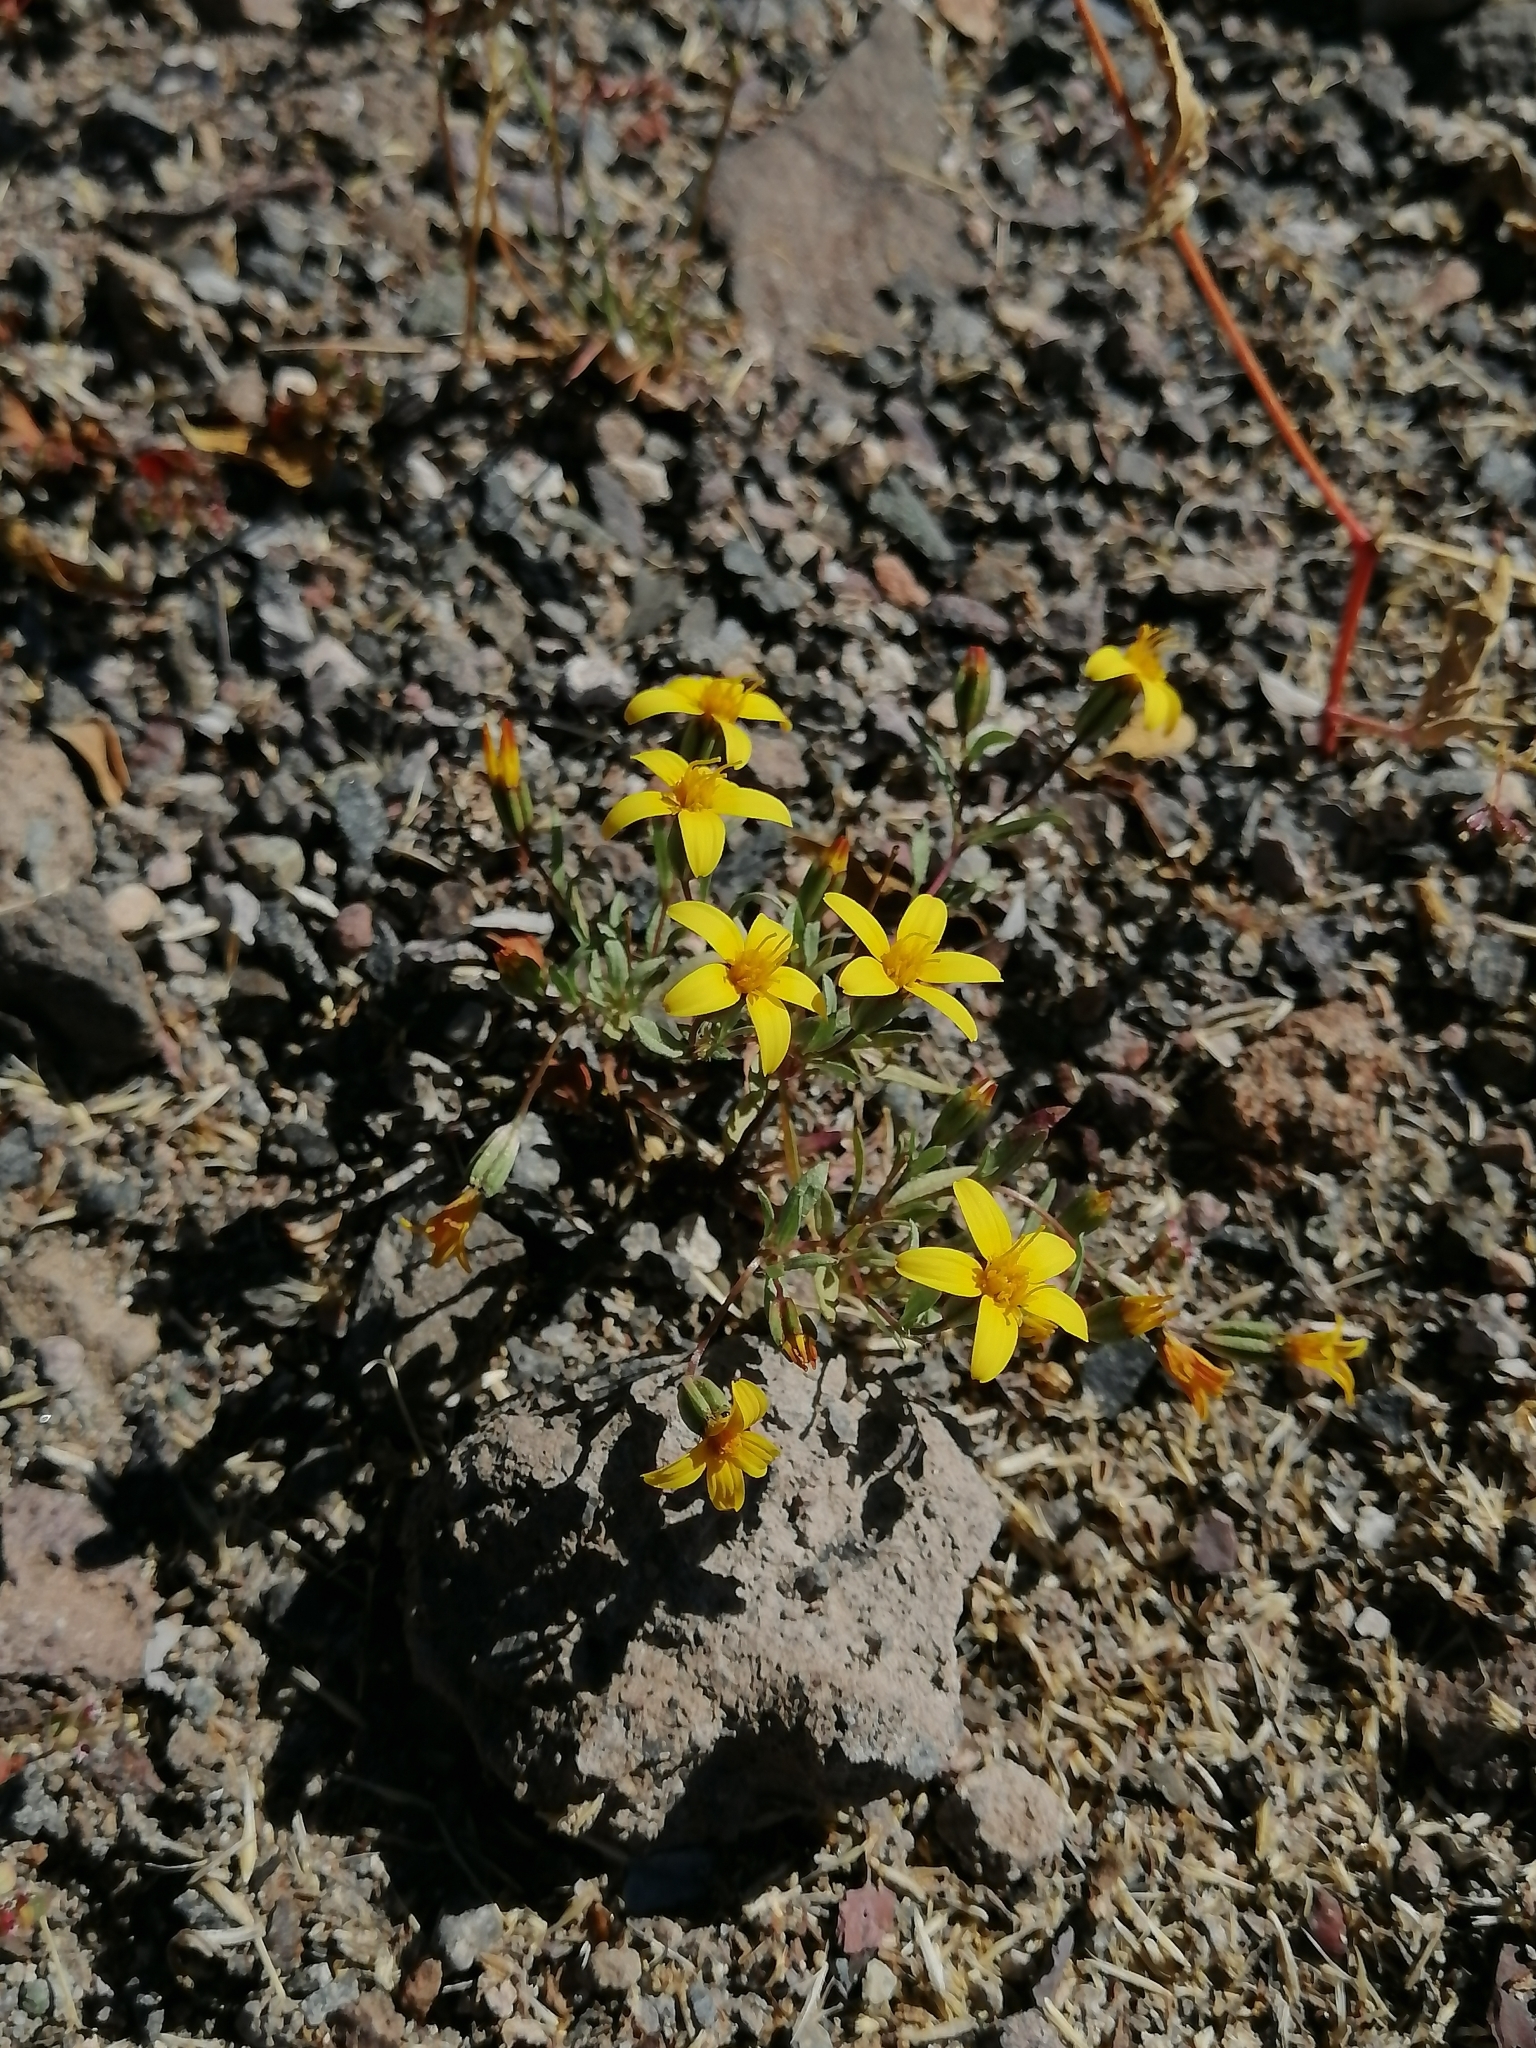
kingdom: Plantae
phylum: Tracheophyta
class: Magnoliopsida
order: Asterales
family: Asteraceae
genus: Pectis
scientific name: Pectis multiseta
